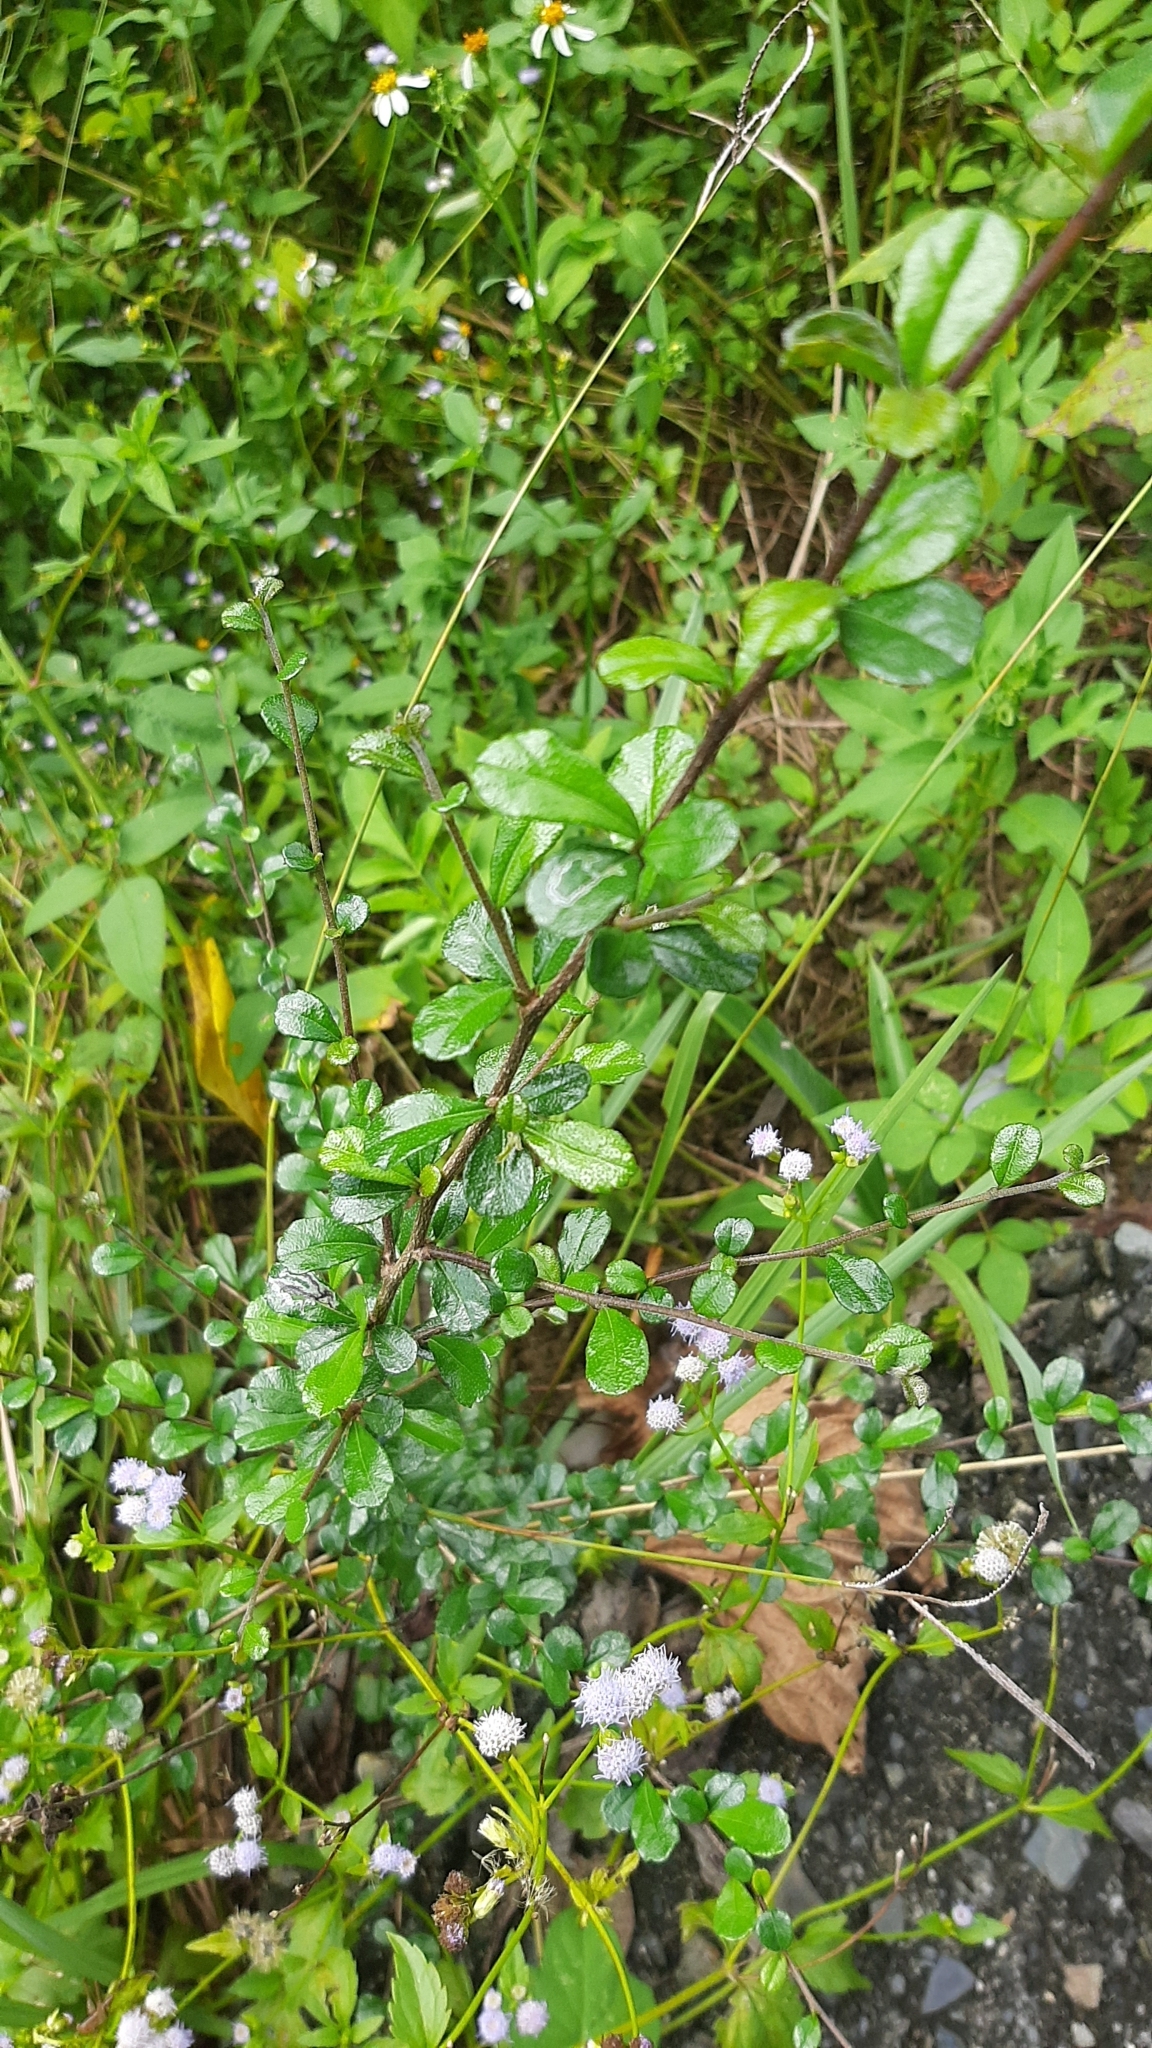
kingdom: Plantae
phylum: Tracheophyta
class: Magnoliopsida
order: Boraginales
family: Ehretiaceae
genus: Ehretia
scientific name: Ehretia microphylla
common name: Fukien-tea
